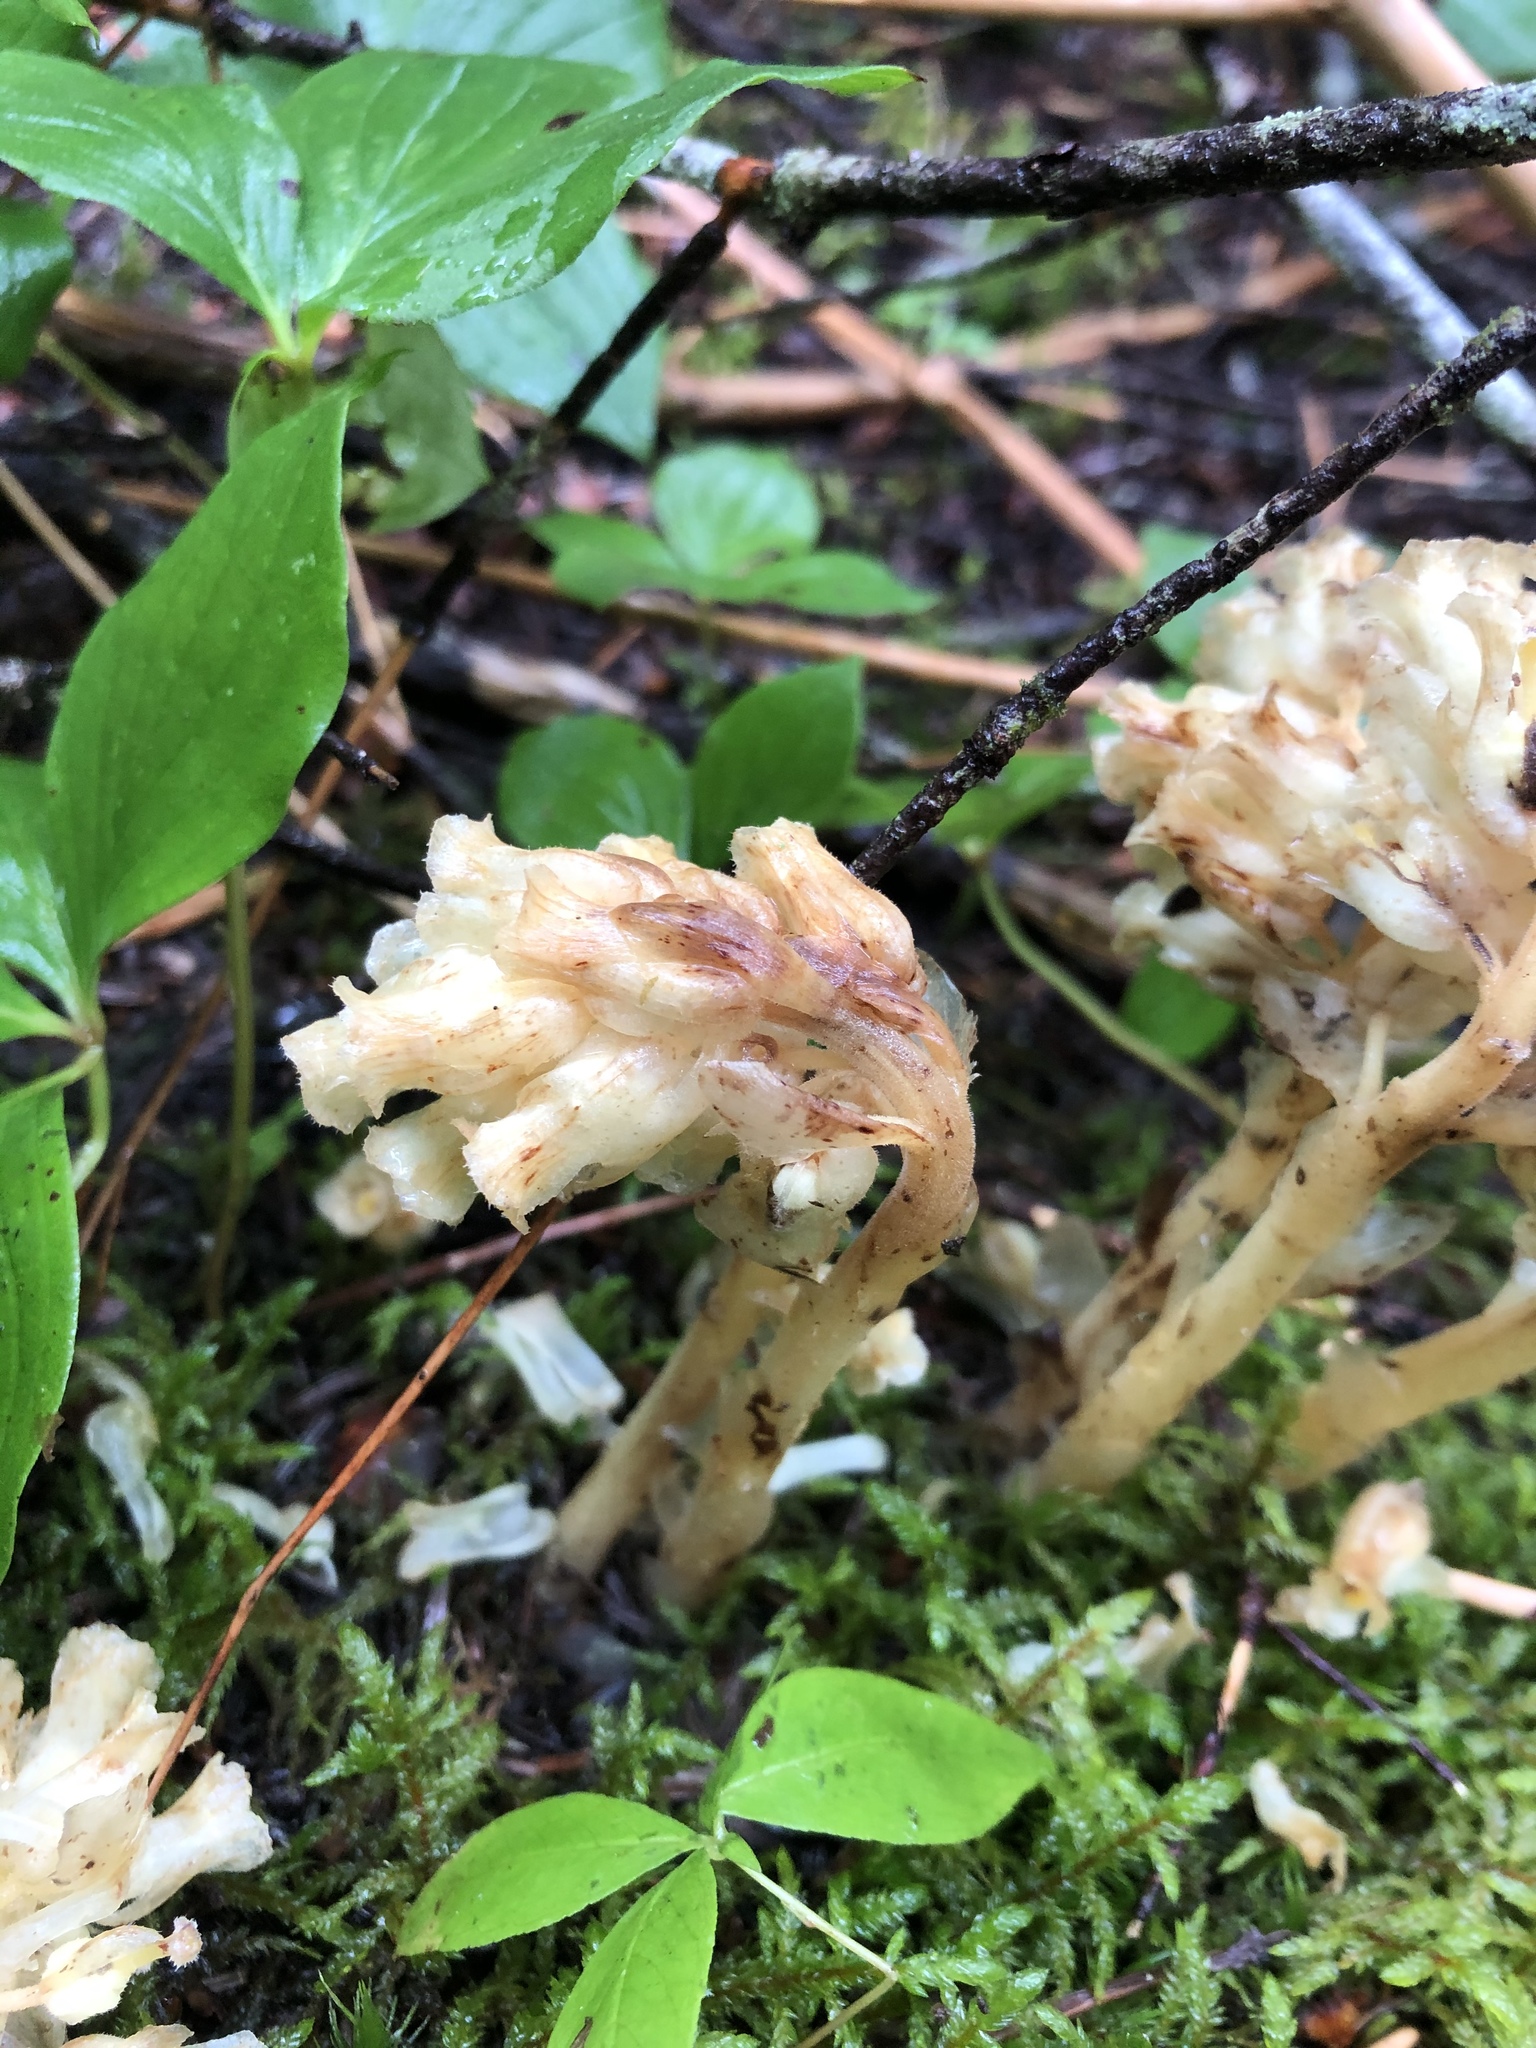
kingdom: Plantae
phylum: Tracheophyta
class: Magnoliopsida
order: Ericales
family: Ericaceae
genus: Hypopitys
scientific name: Hypopitys monotropa
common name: Yellow bird's-nest
